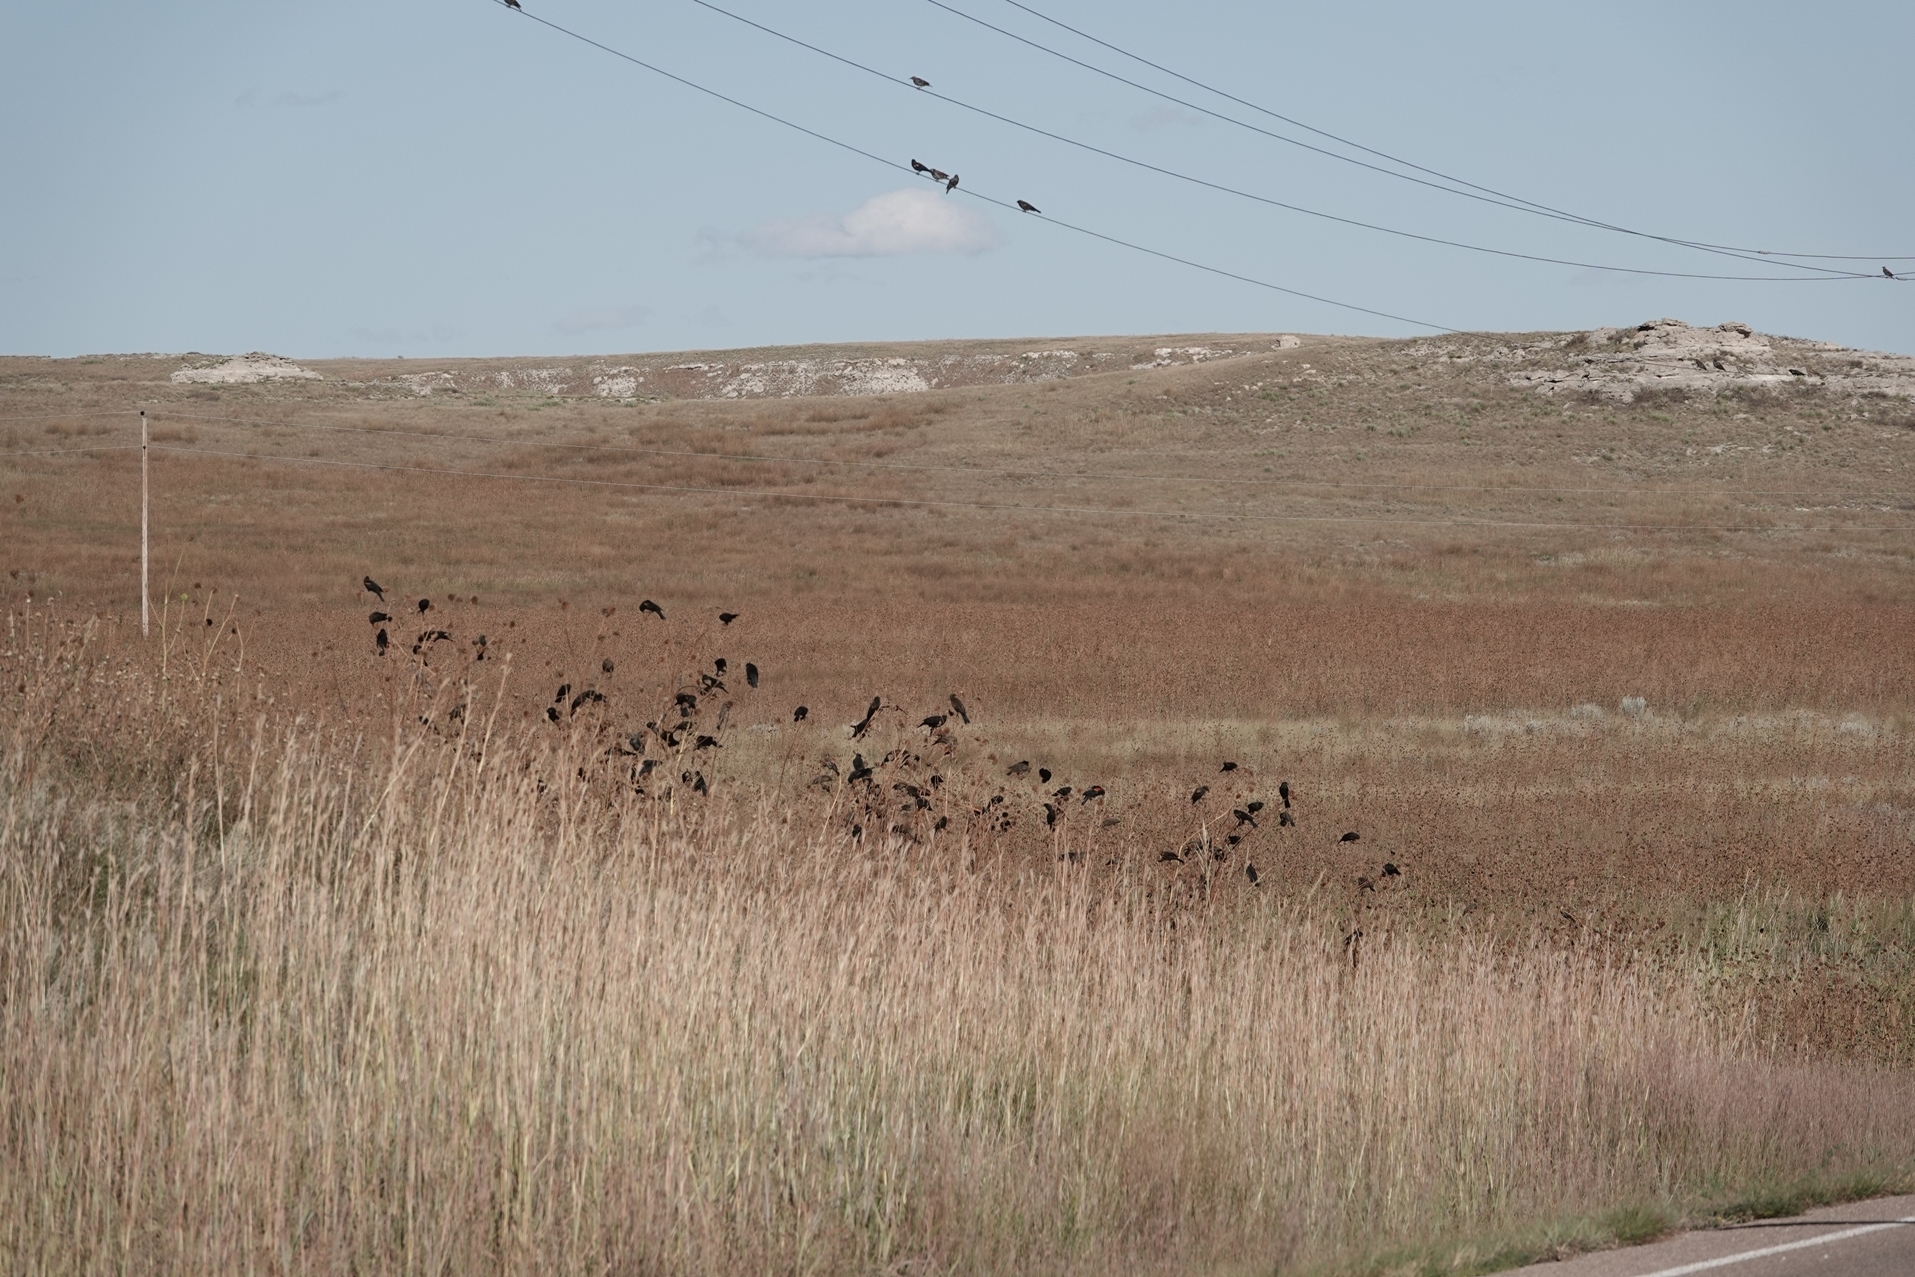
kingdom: Animalia
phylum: Chordata
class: Aves
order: Passeriformes
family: Icteridae
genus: Agelaius
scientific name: Agelaius phoeniceus
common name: Red-winged blackbird
